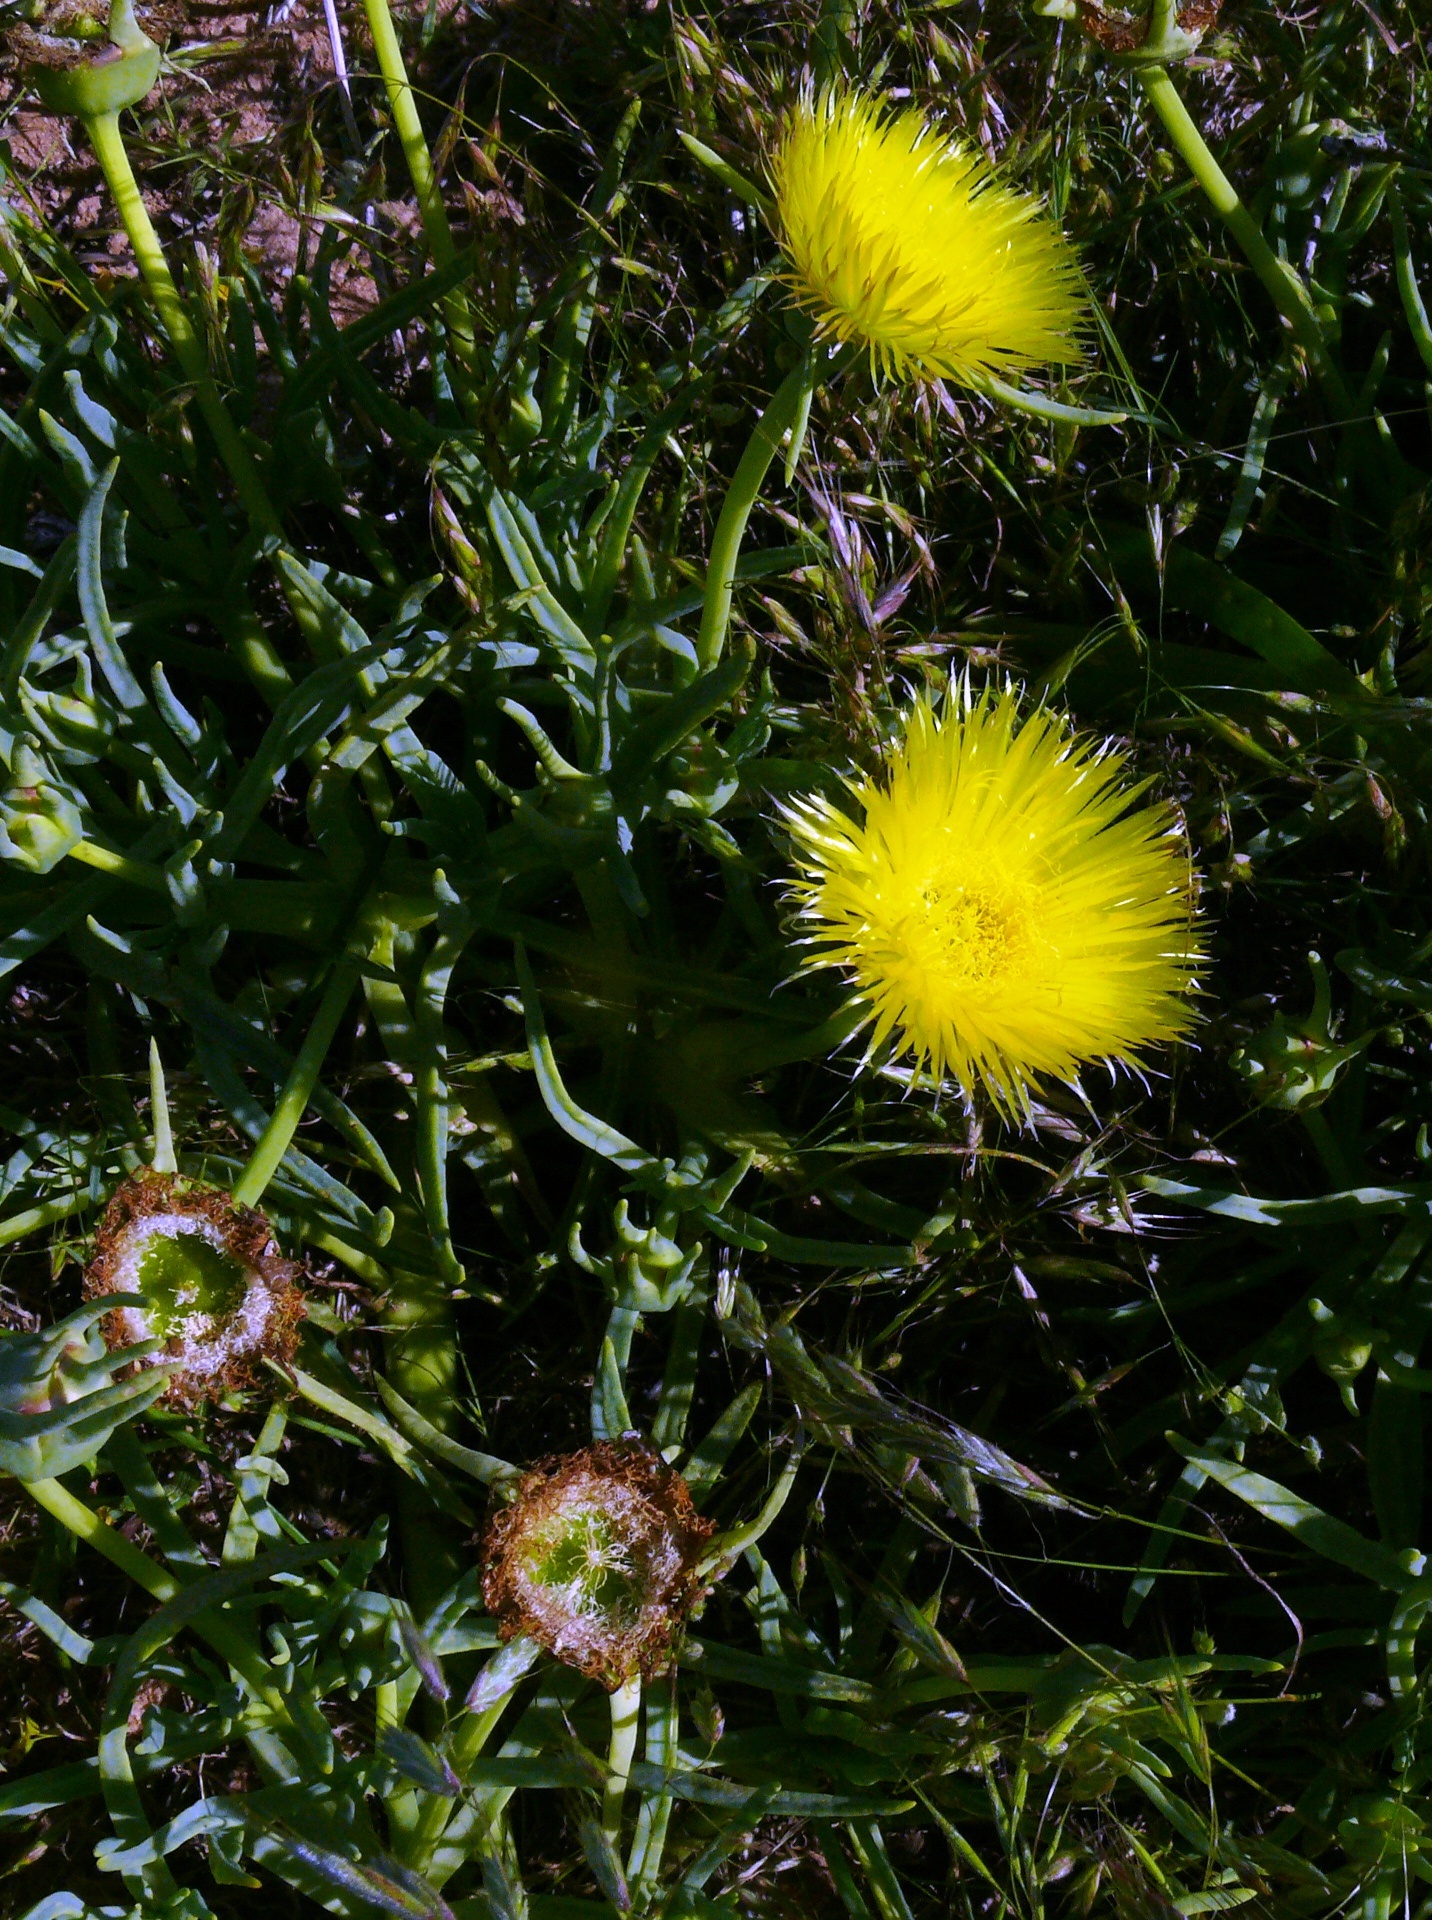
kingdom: Plantae
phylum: Tracheophyta
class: Magnoliopsida
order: Caryophyllales
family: Aizoaceae
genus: Conicosia
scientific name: Conicosia pugioniformis
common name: Narrow-leaved iceplant
